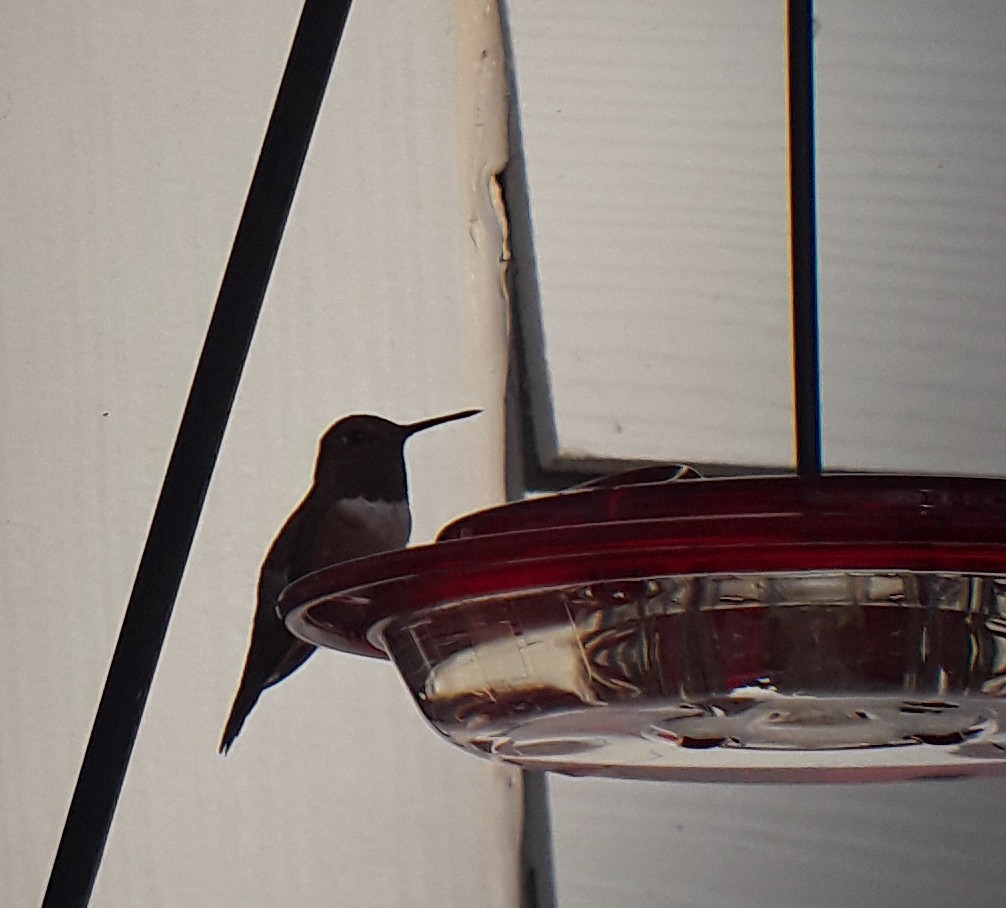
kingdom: Animalia
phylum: Chordata
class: Aves
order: Apodiformes
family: Trochilidae
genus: Selasphorus
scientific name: Selasphorus rufus
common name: Rufous hummingbird
